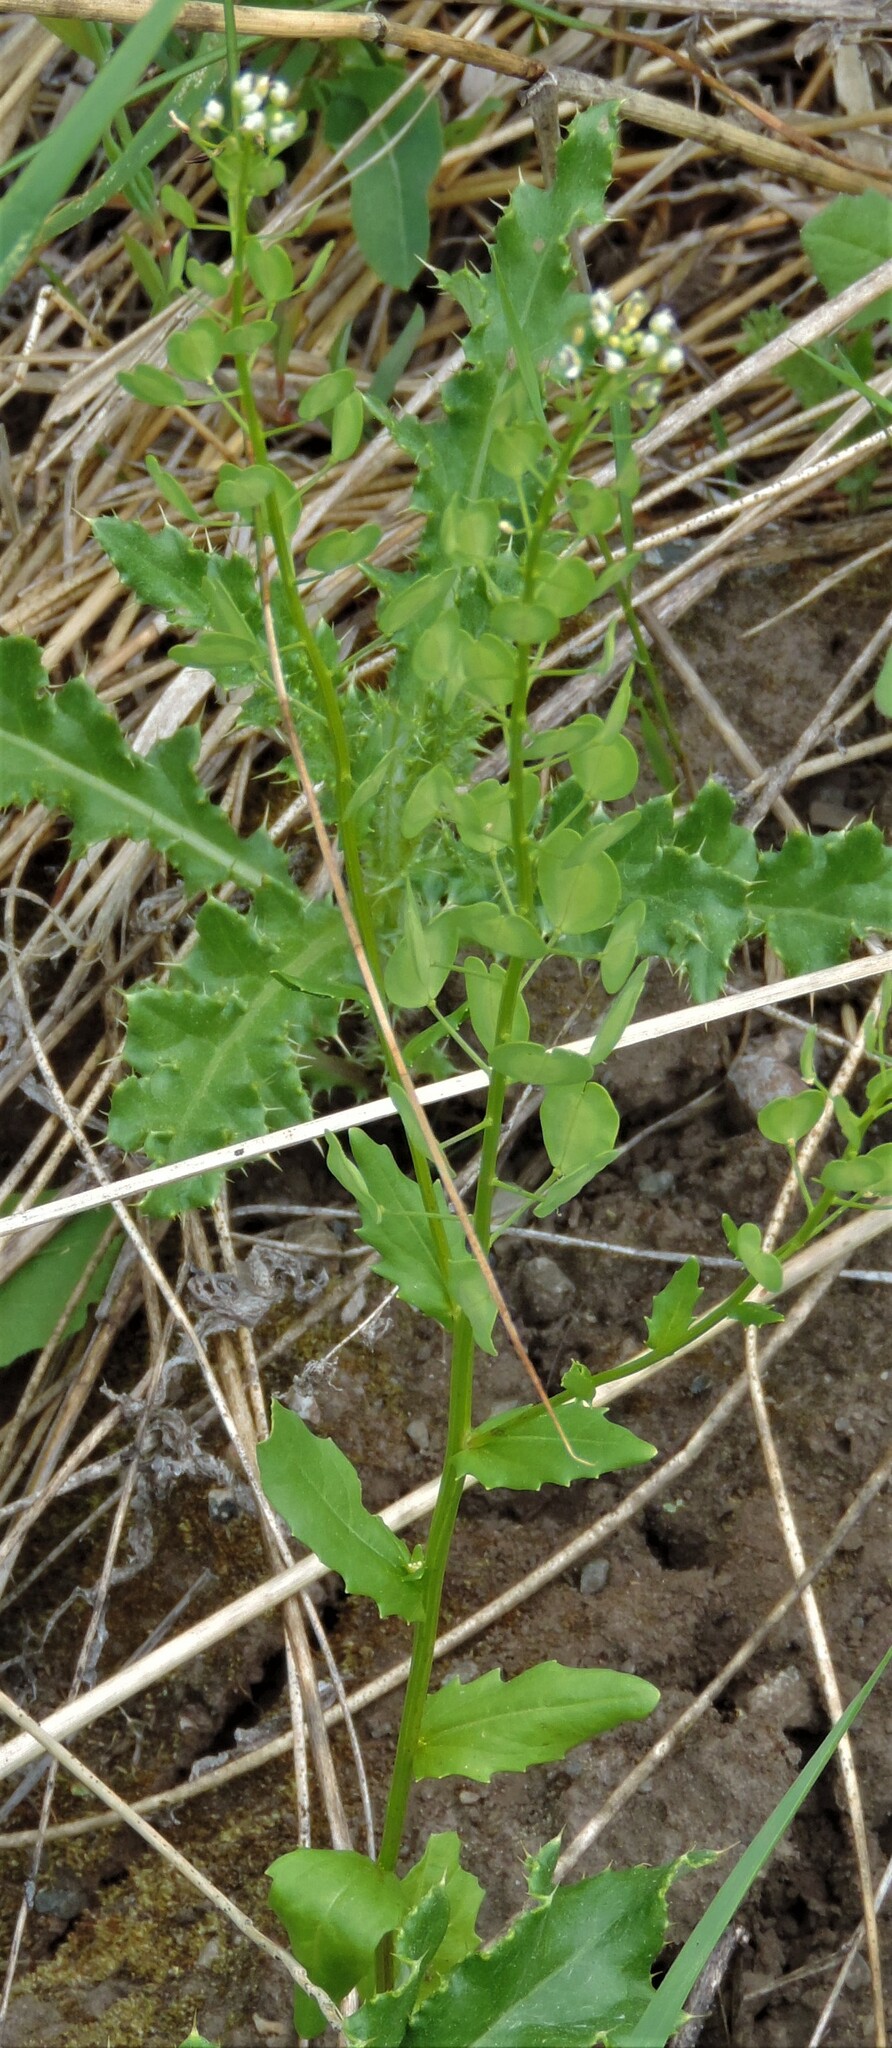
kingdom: Plantae
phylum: Tracheophyta
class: Magnoliopsida
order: Brassicales
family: Brassicaceae
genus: Thlaspi
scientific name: Thlaspi arvense
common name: Field pennycress
